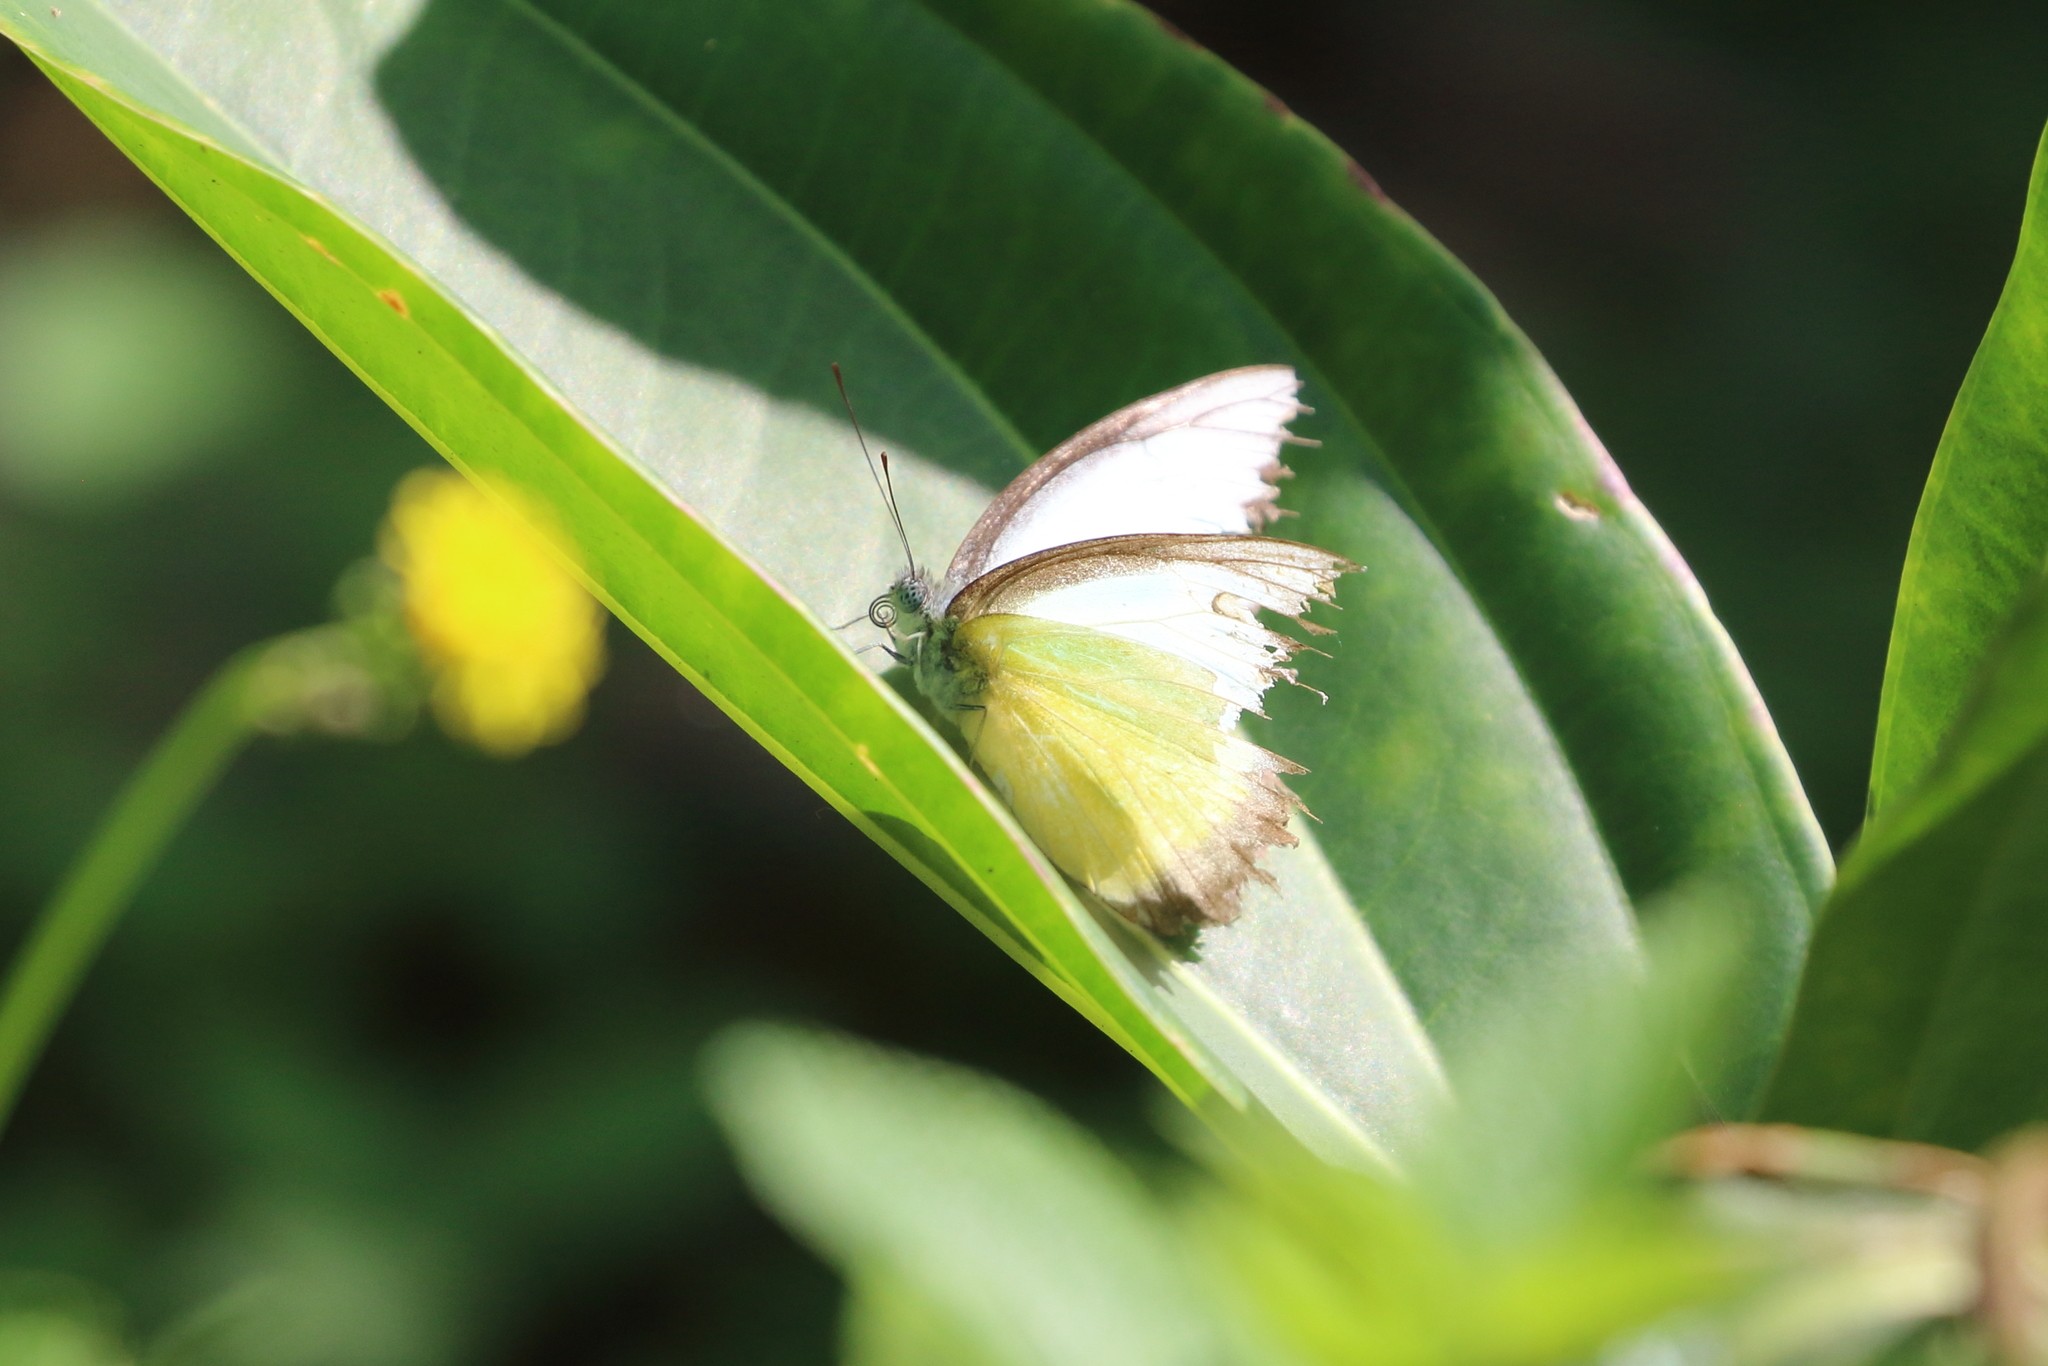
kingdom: Animalia
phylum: Arthropoda
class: Insecta
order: Lepidoptera
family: Pieridae
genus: Appias
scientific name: Appias lyncida
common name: Chocolate albatross
